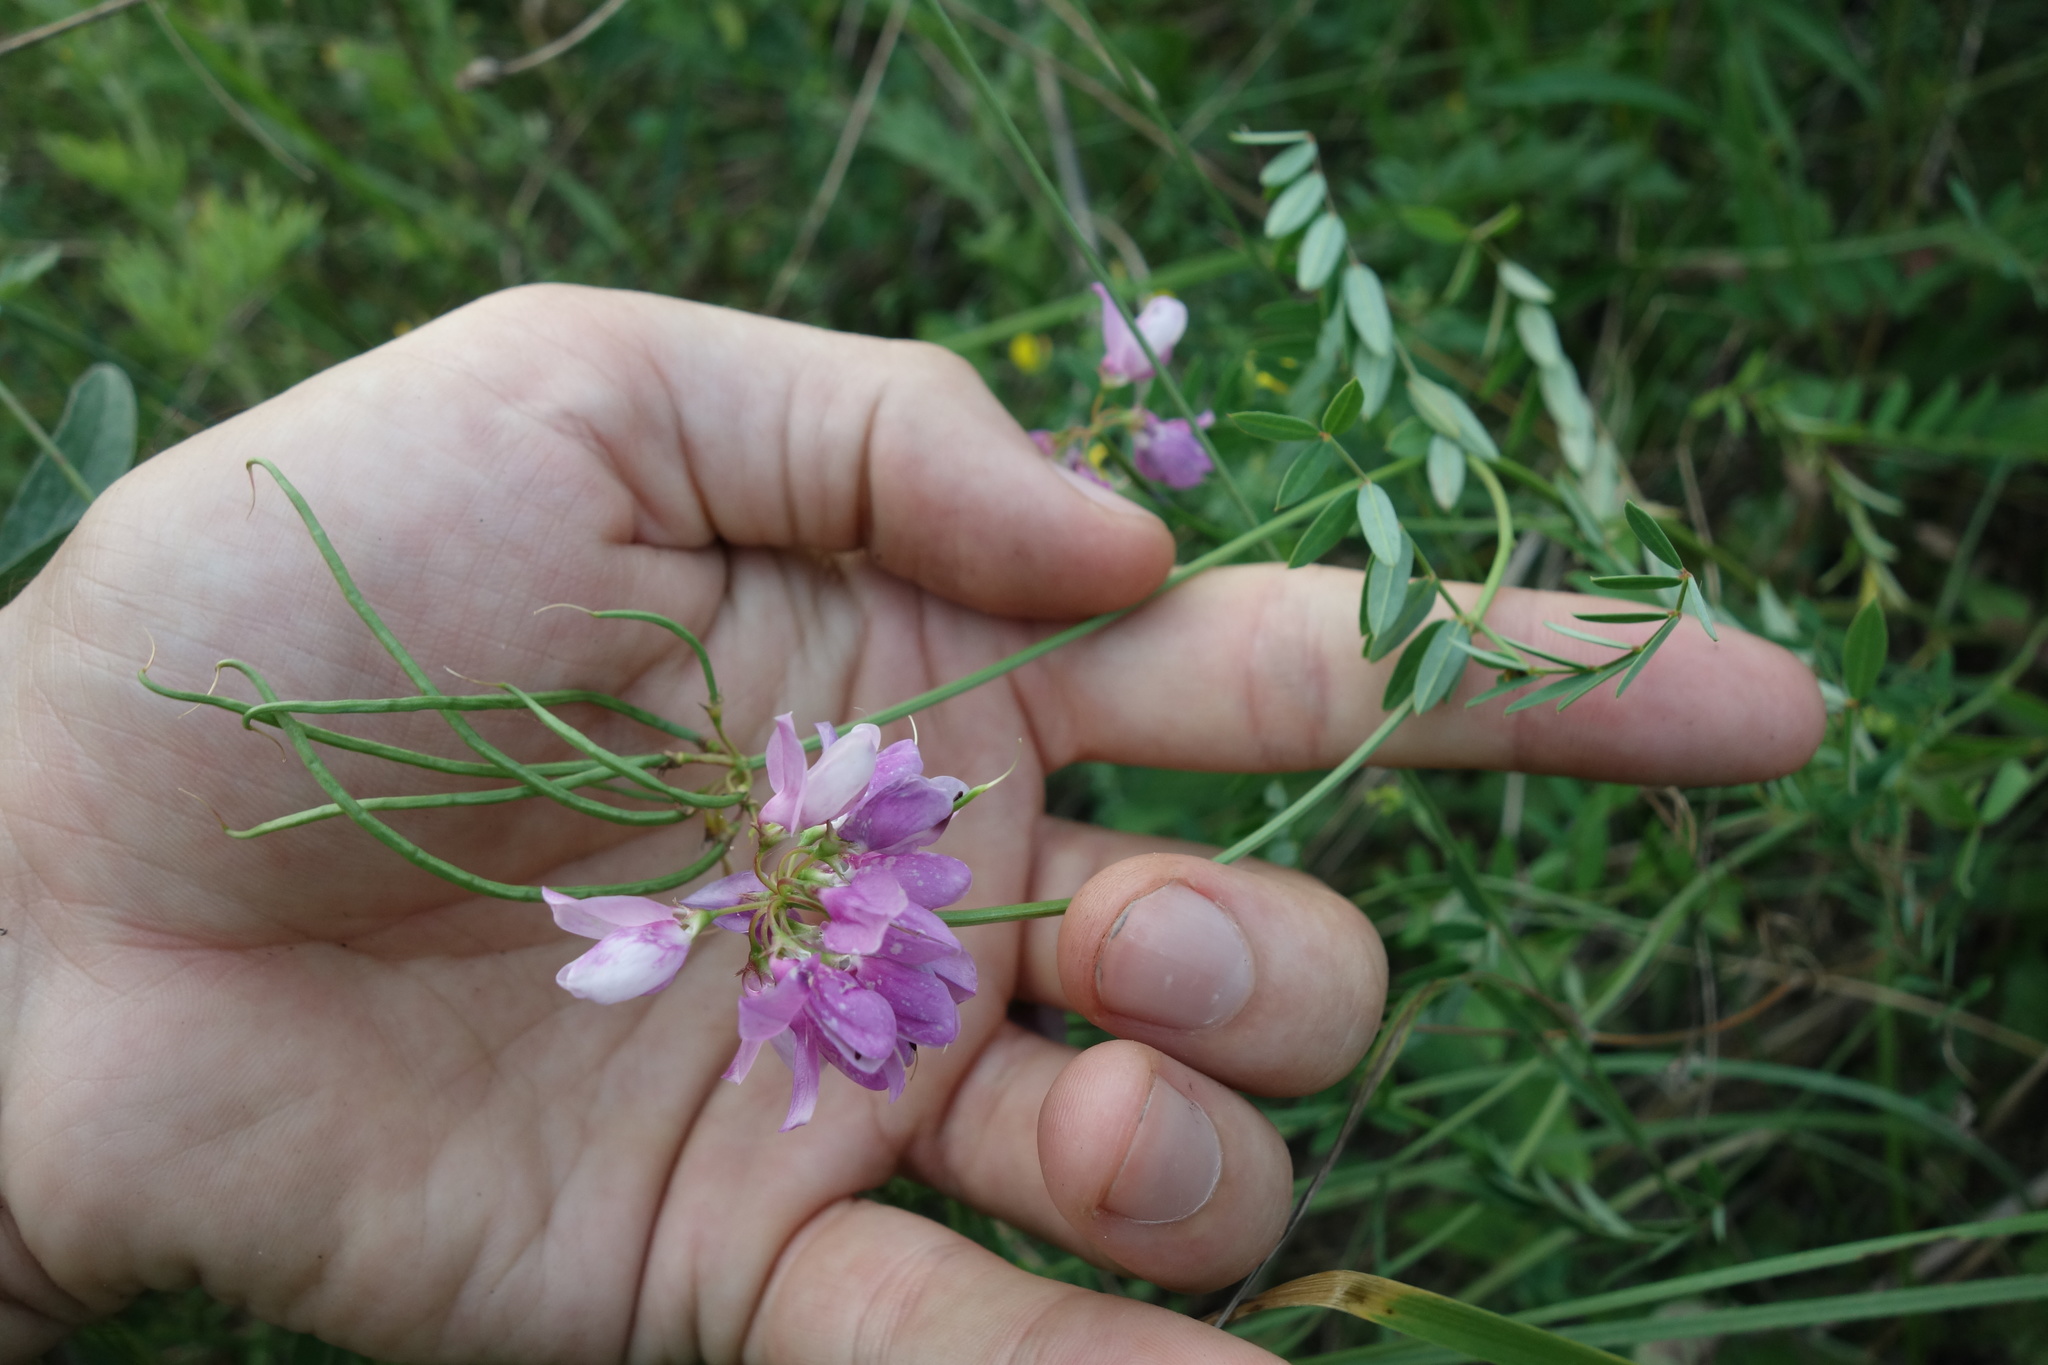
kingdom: Plantae
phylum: Tracheophyta
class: Magnoliopsida
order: Fabales
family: Fabaceae
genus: Coronilla
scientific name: Coronilla varia
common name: Crownvetch
